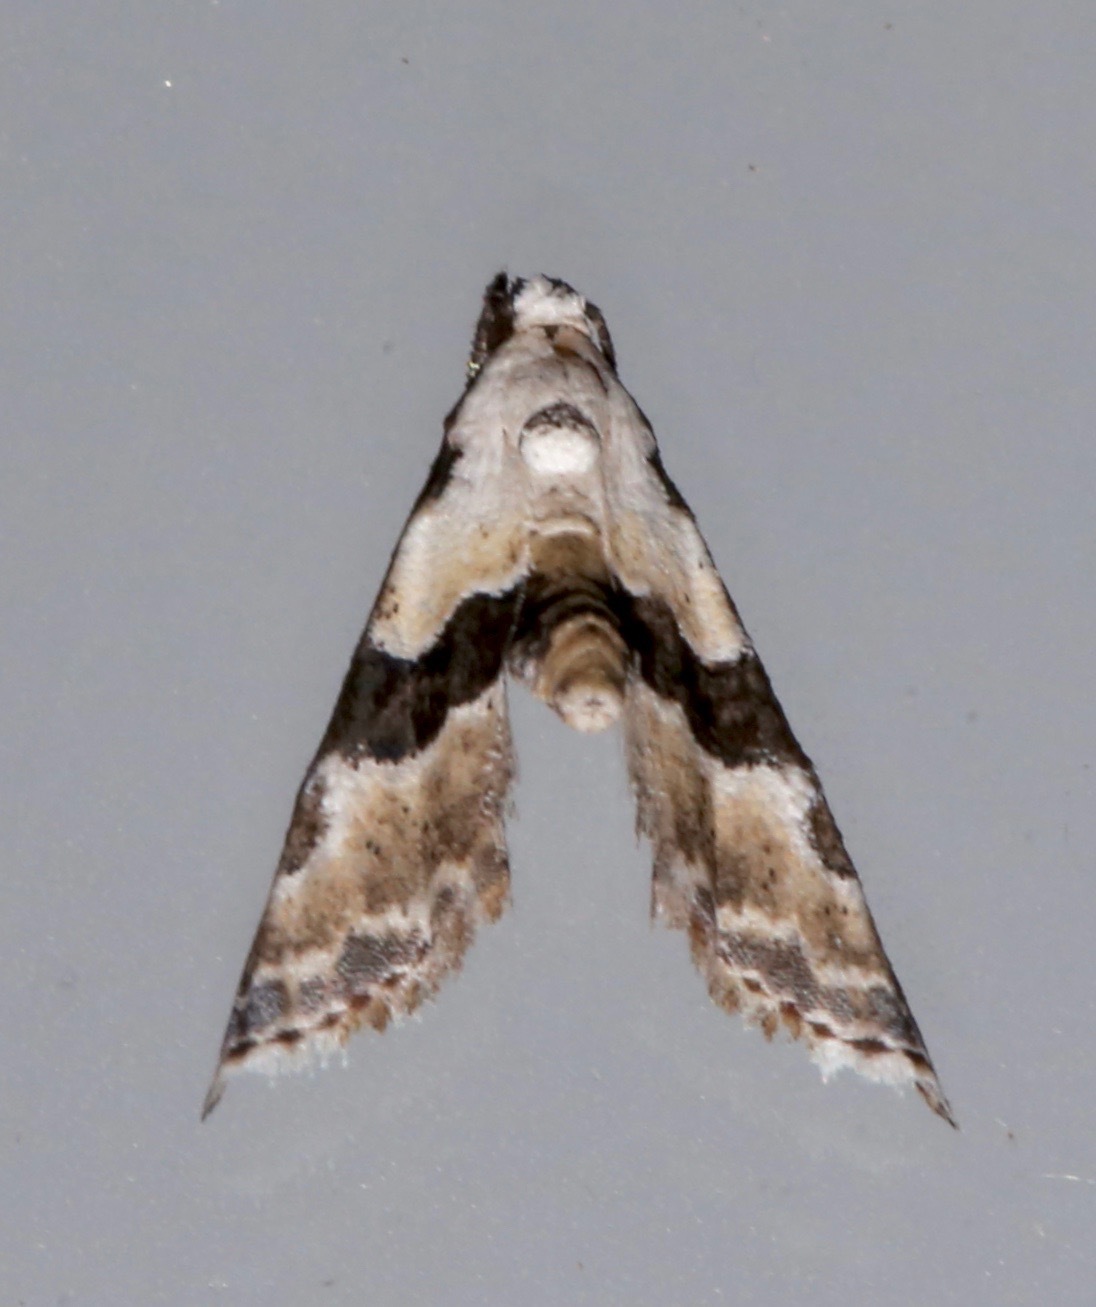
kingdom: Animalia
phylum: Arthropoda
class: Insecta
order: Lepidoptera
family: Noctuidae
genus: Nigetia
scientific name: Nigetia formosalis
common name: Thin-winged owlet
